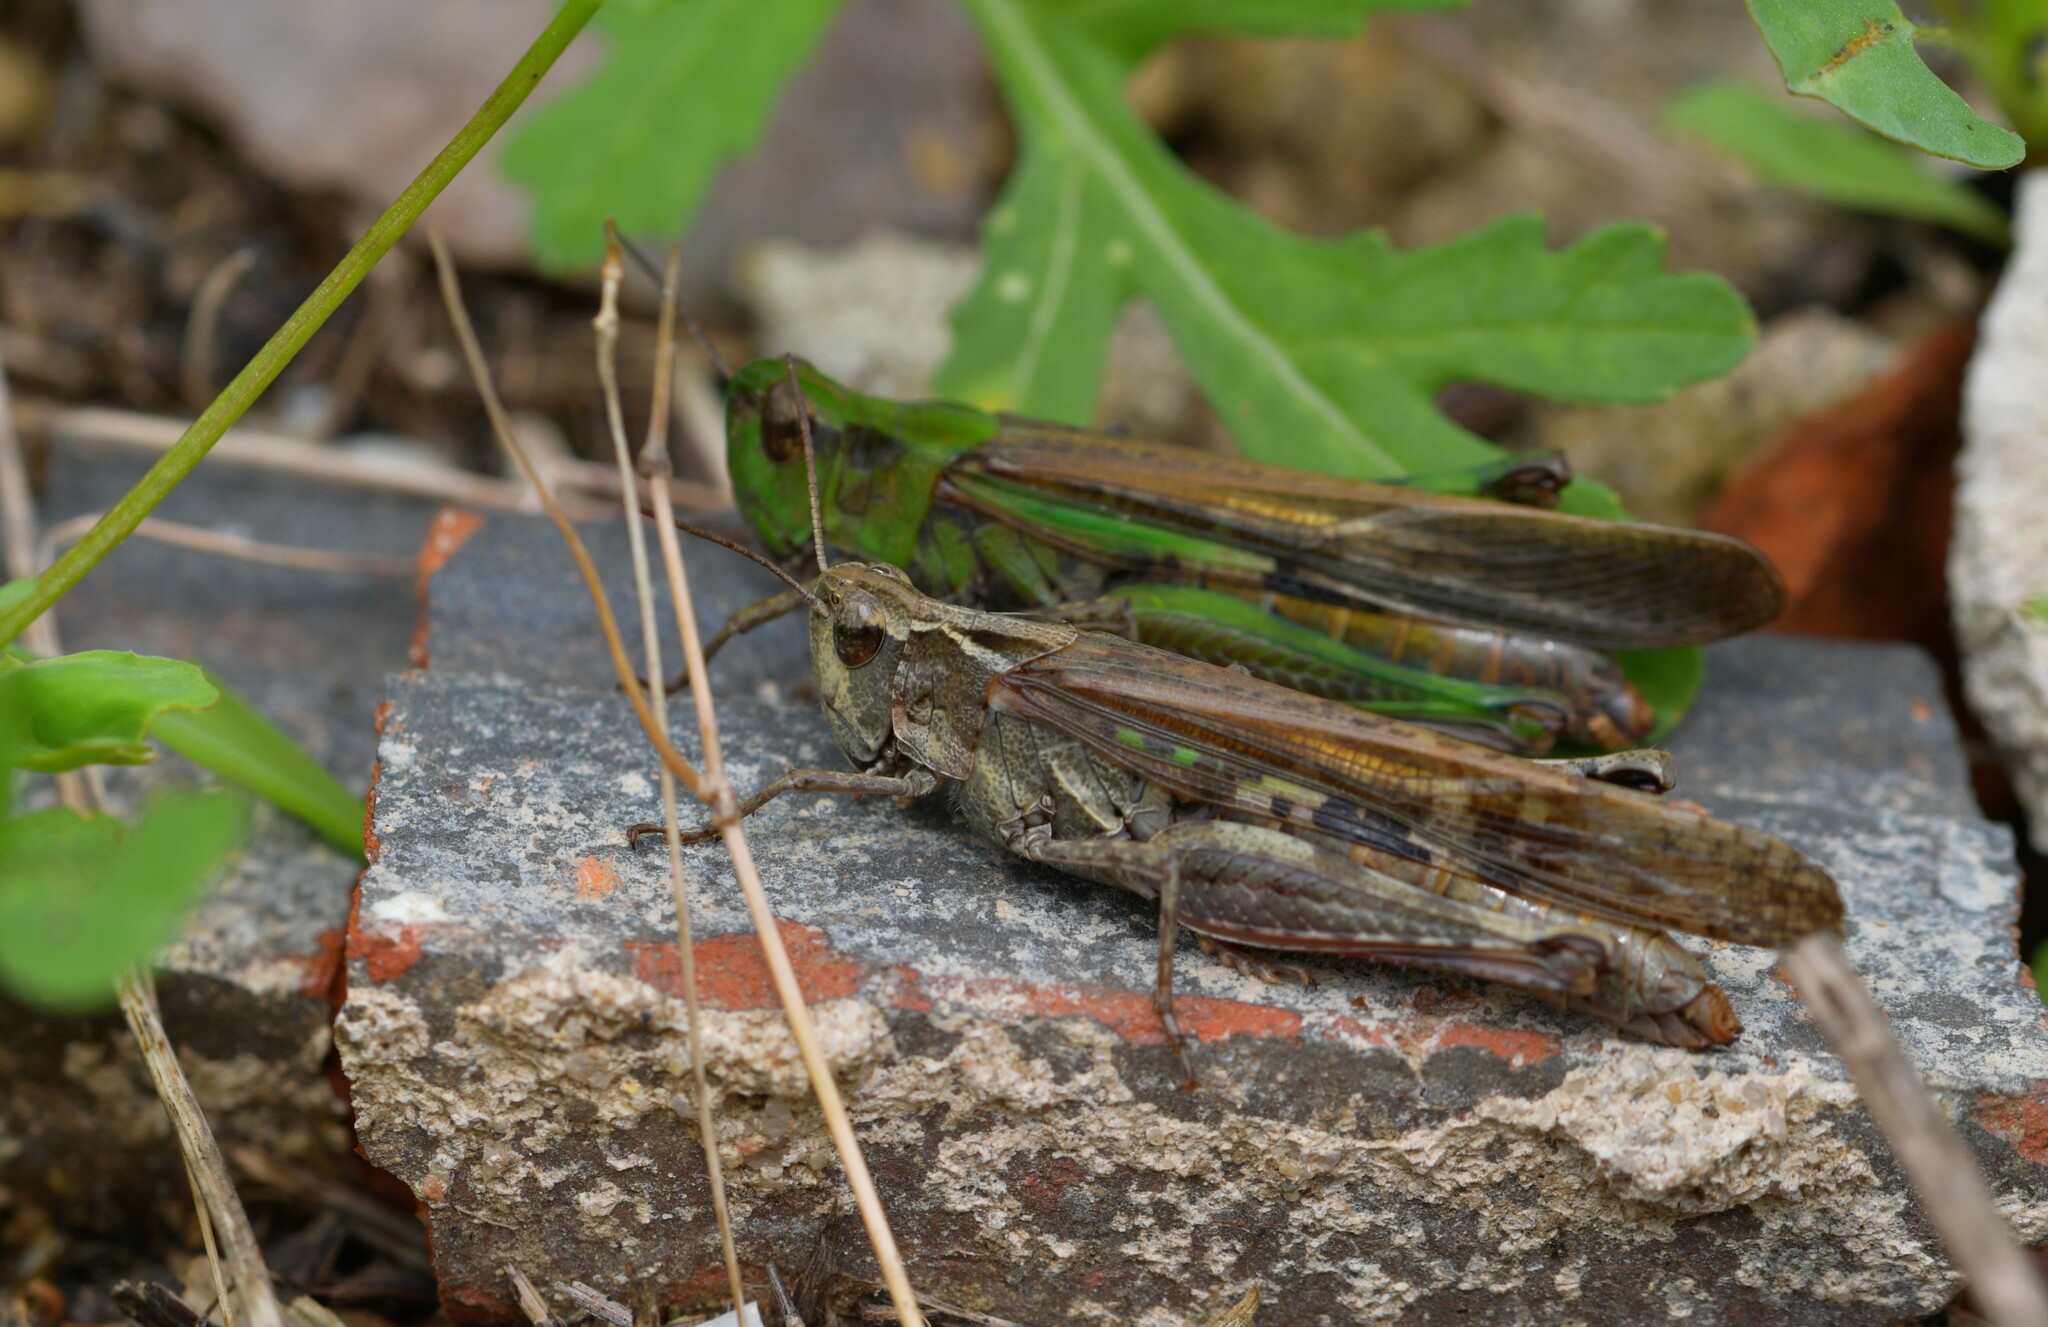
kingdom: Animalia
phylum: Arthropoda
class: Insecta
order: Orthoptera
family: Acrididae
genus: Aiolopus
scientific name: Aiolopus puissanti
